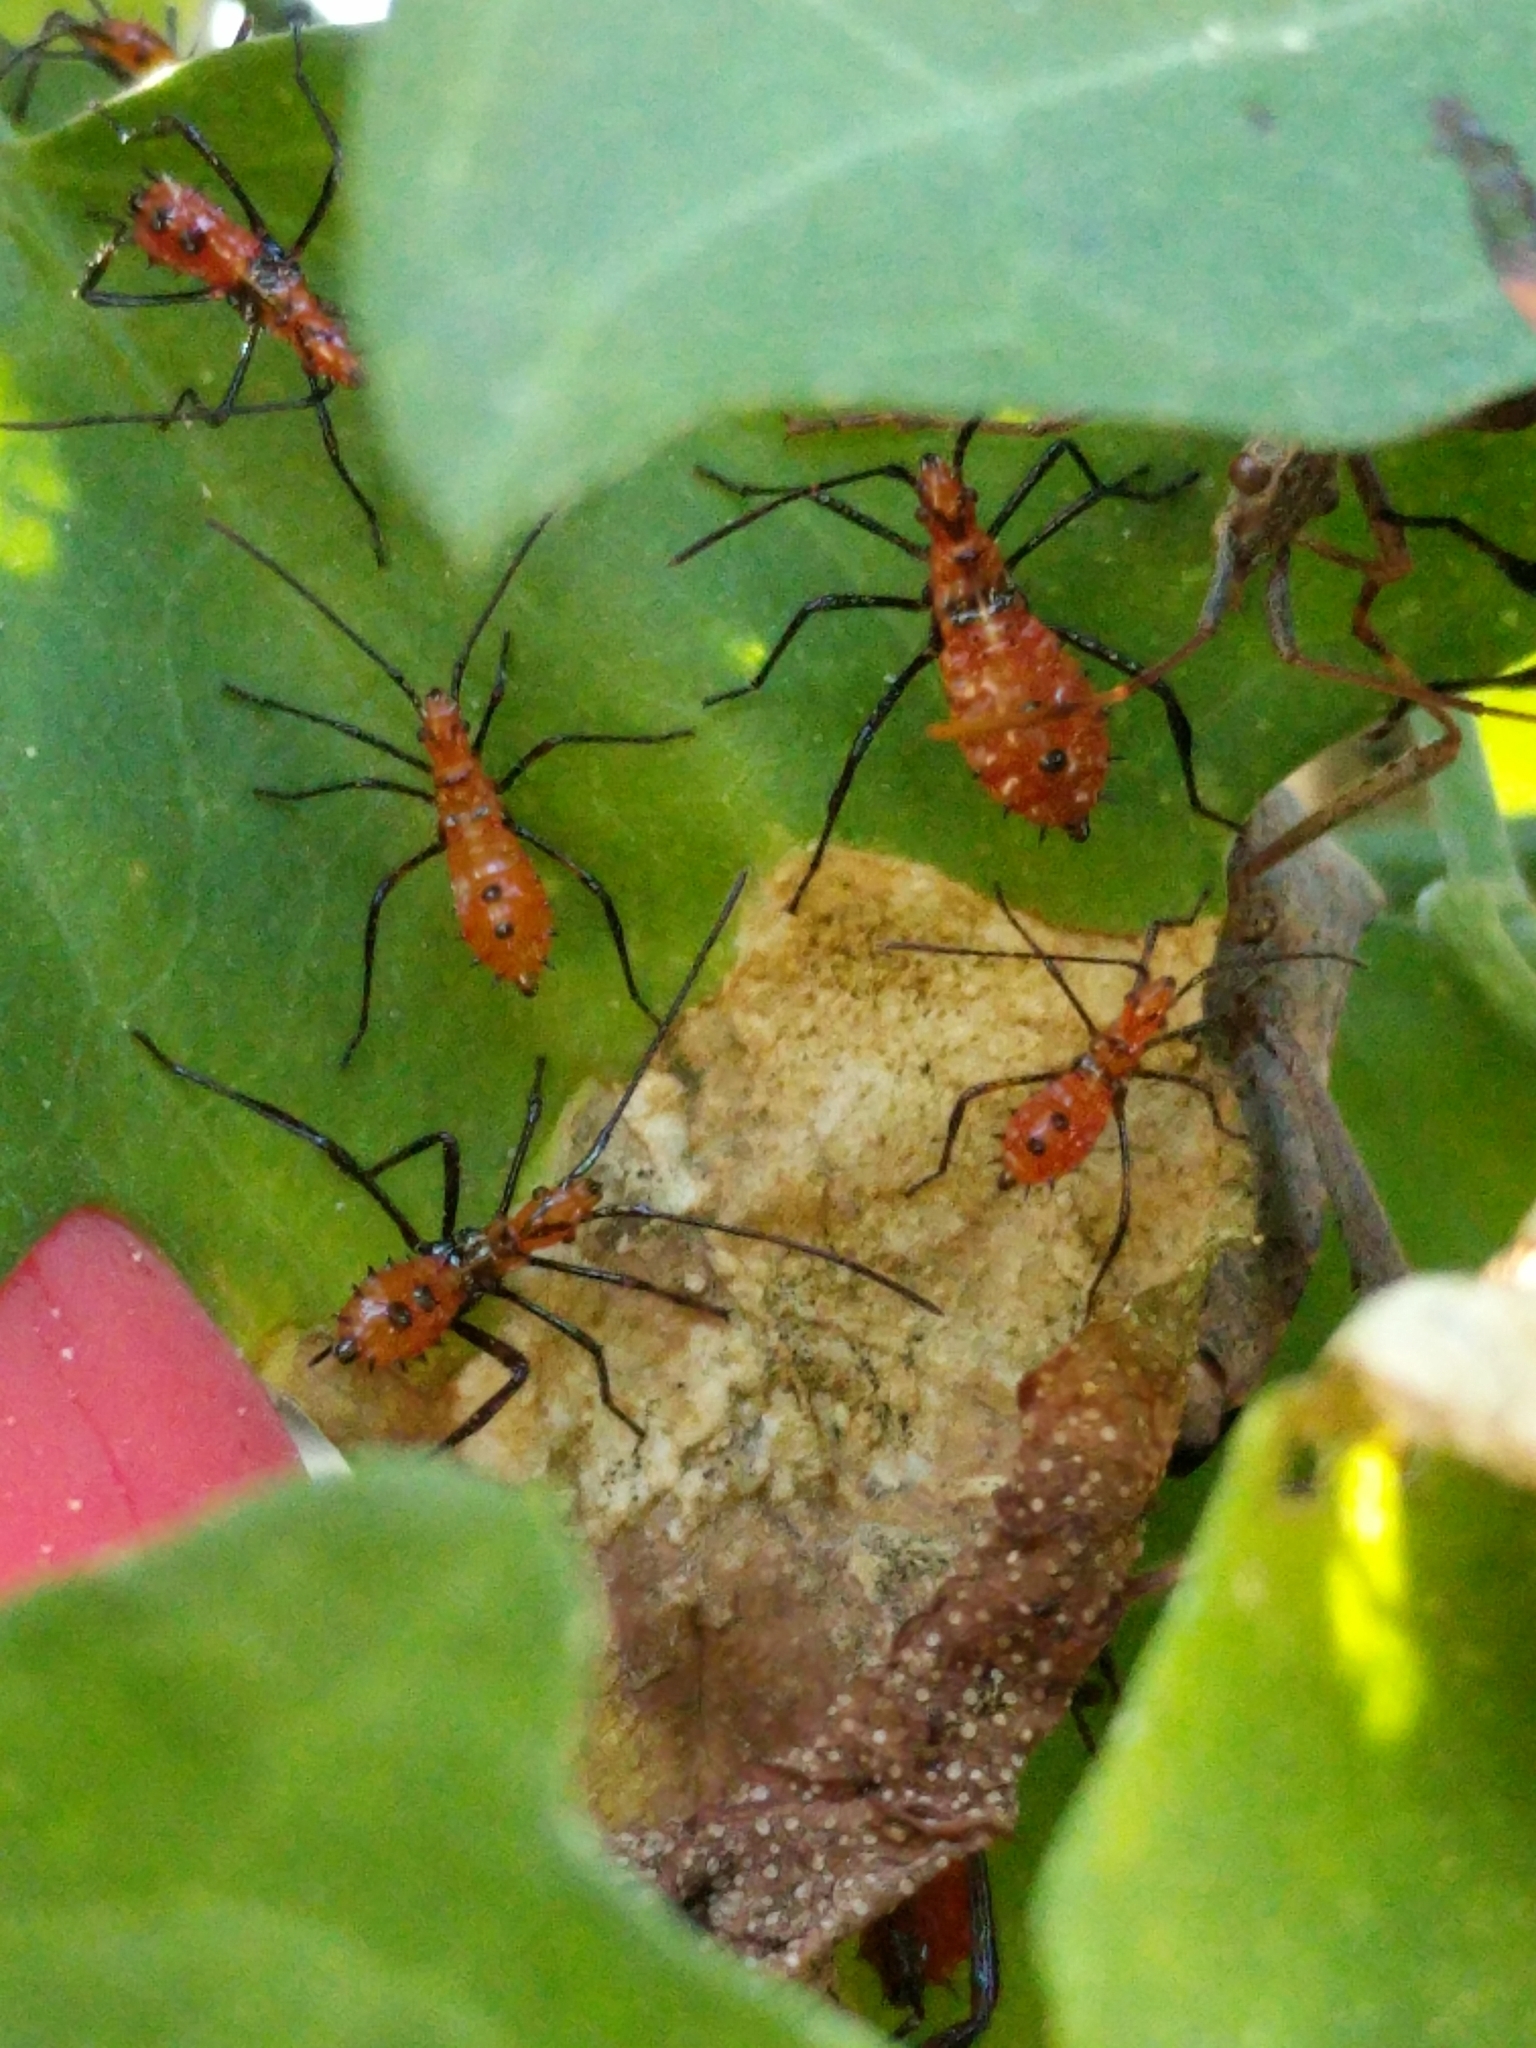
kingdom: Animalia
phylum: Arthropoda
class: Insecta
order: Hemiptera
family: Coreidae
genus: Leptoglossus
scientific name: Leptoglossus zonatus
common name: Large-legged bug
